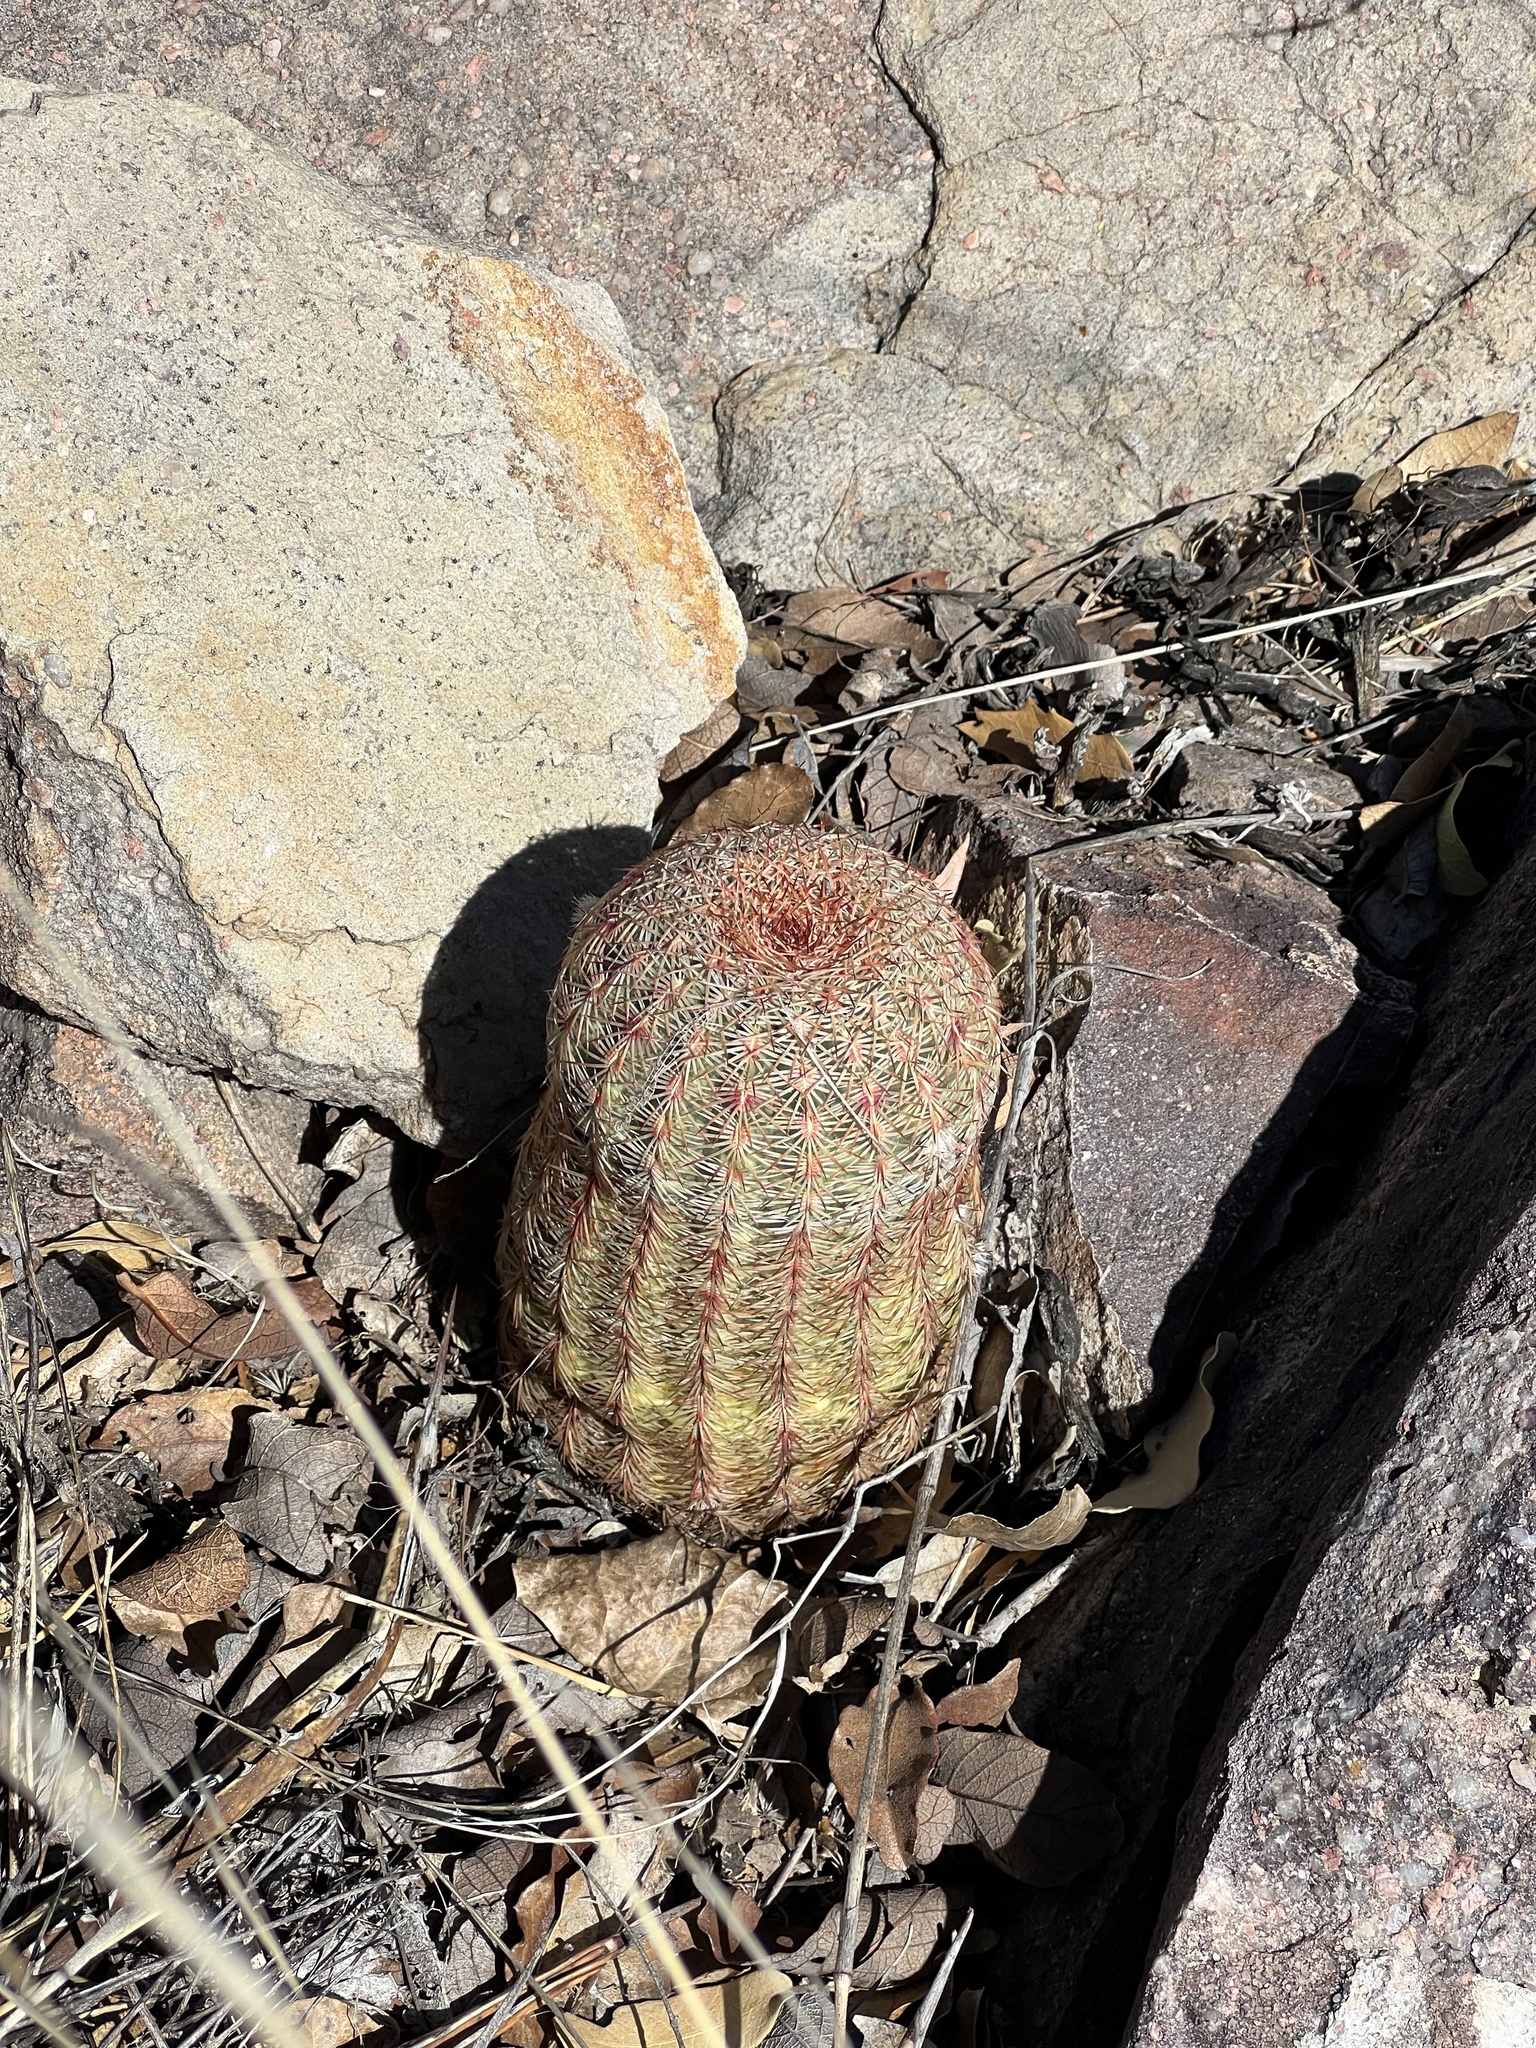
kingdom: Plantae
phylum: Tracheophyta
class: Magnoliopsida
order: Caryophyllales
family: Cactaceae
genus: Echinocereus
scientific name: Echinocereus rigidissimus
